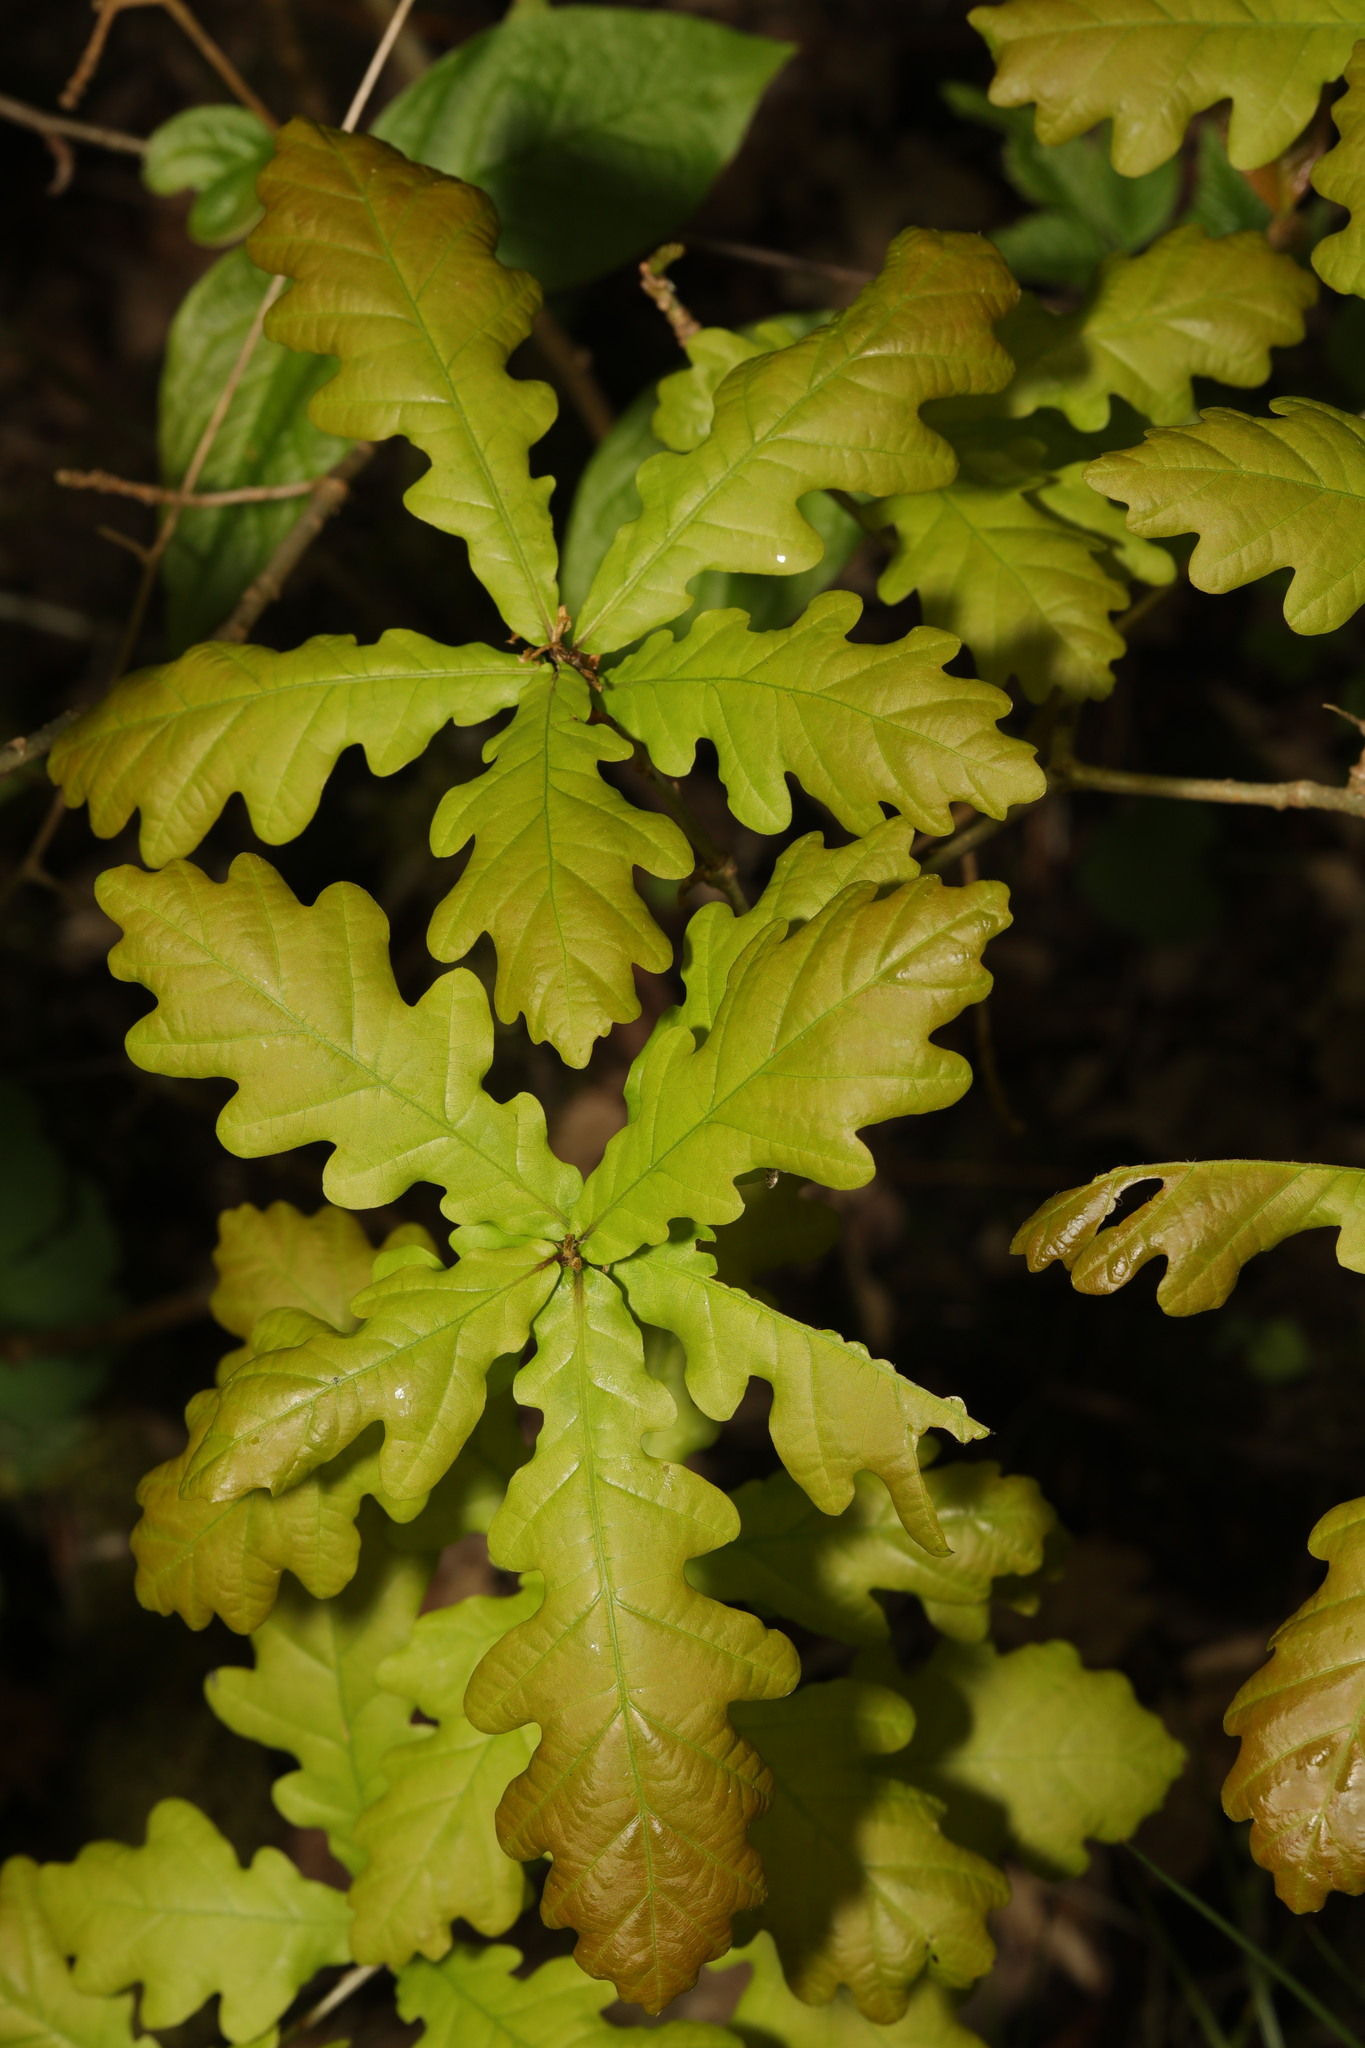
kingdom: Plantae
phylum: Tracheophyta
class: Magnoliopsida
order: Fagales
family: Fagaceae
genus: Quercus
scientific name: Quercus robur
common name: Pedunculate oak
